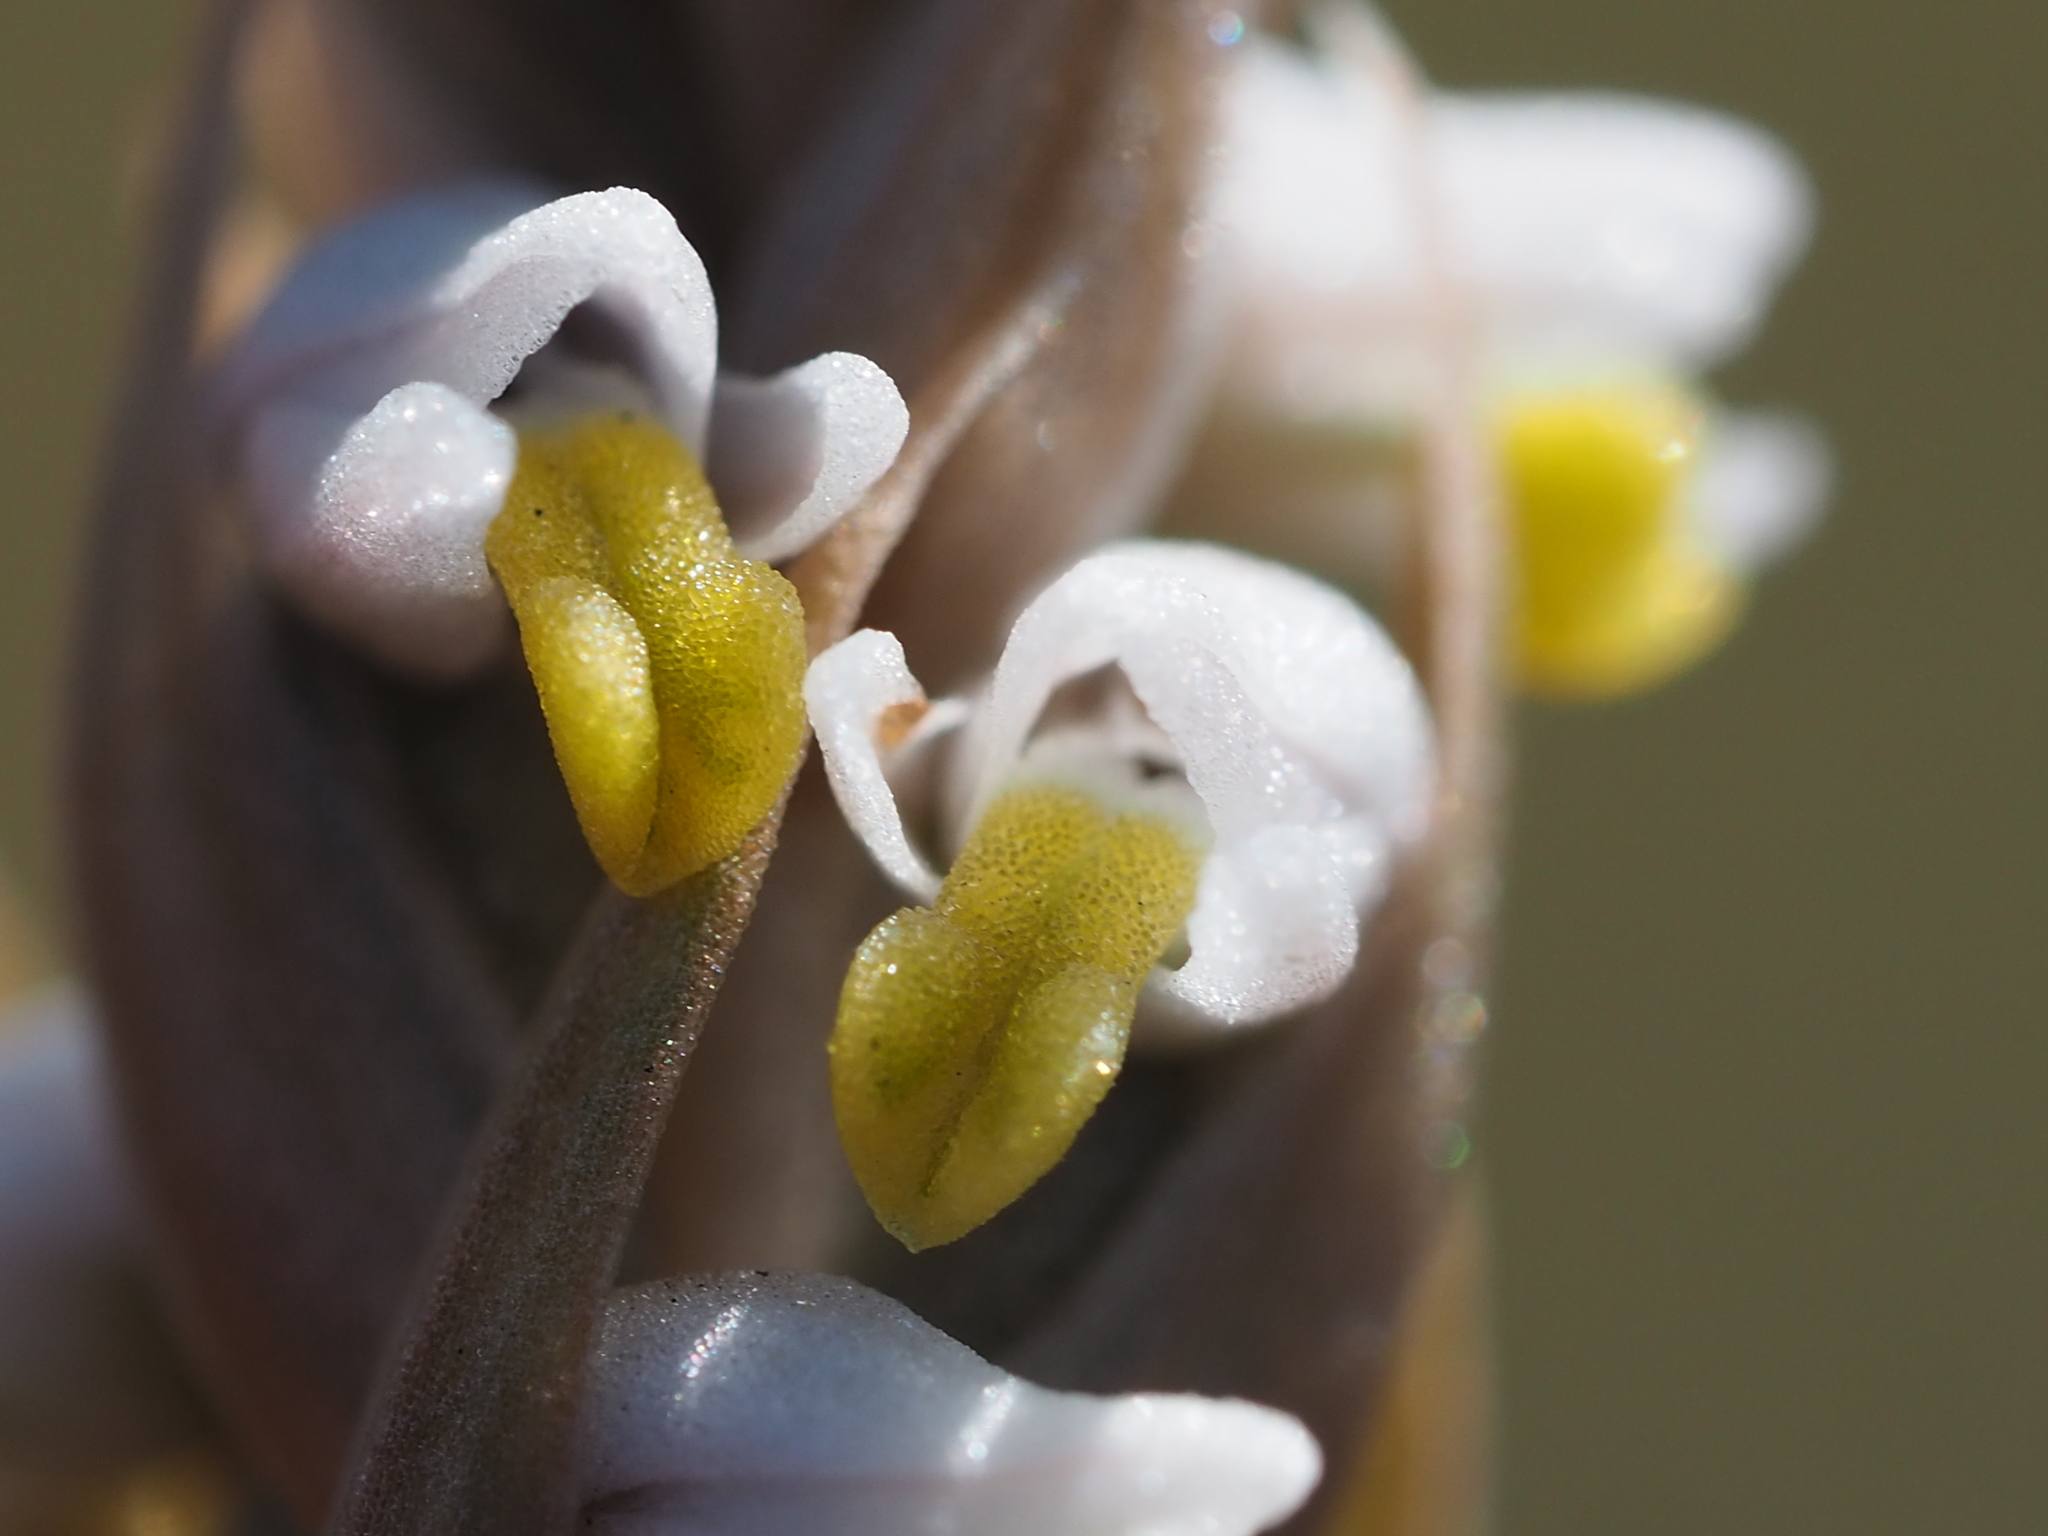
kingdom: Plantae
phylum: Tracheophyta
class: Liliopsida
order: Asparagales
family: Orchidaceae
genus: Zeuxine
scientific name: Zeuxine strateumatica
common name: Soldier's orchid
